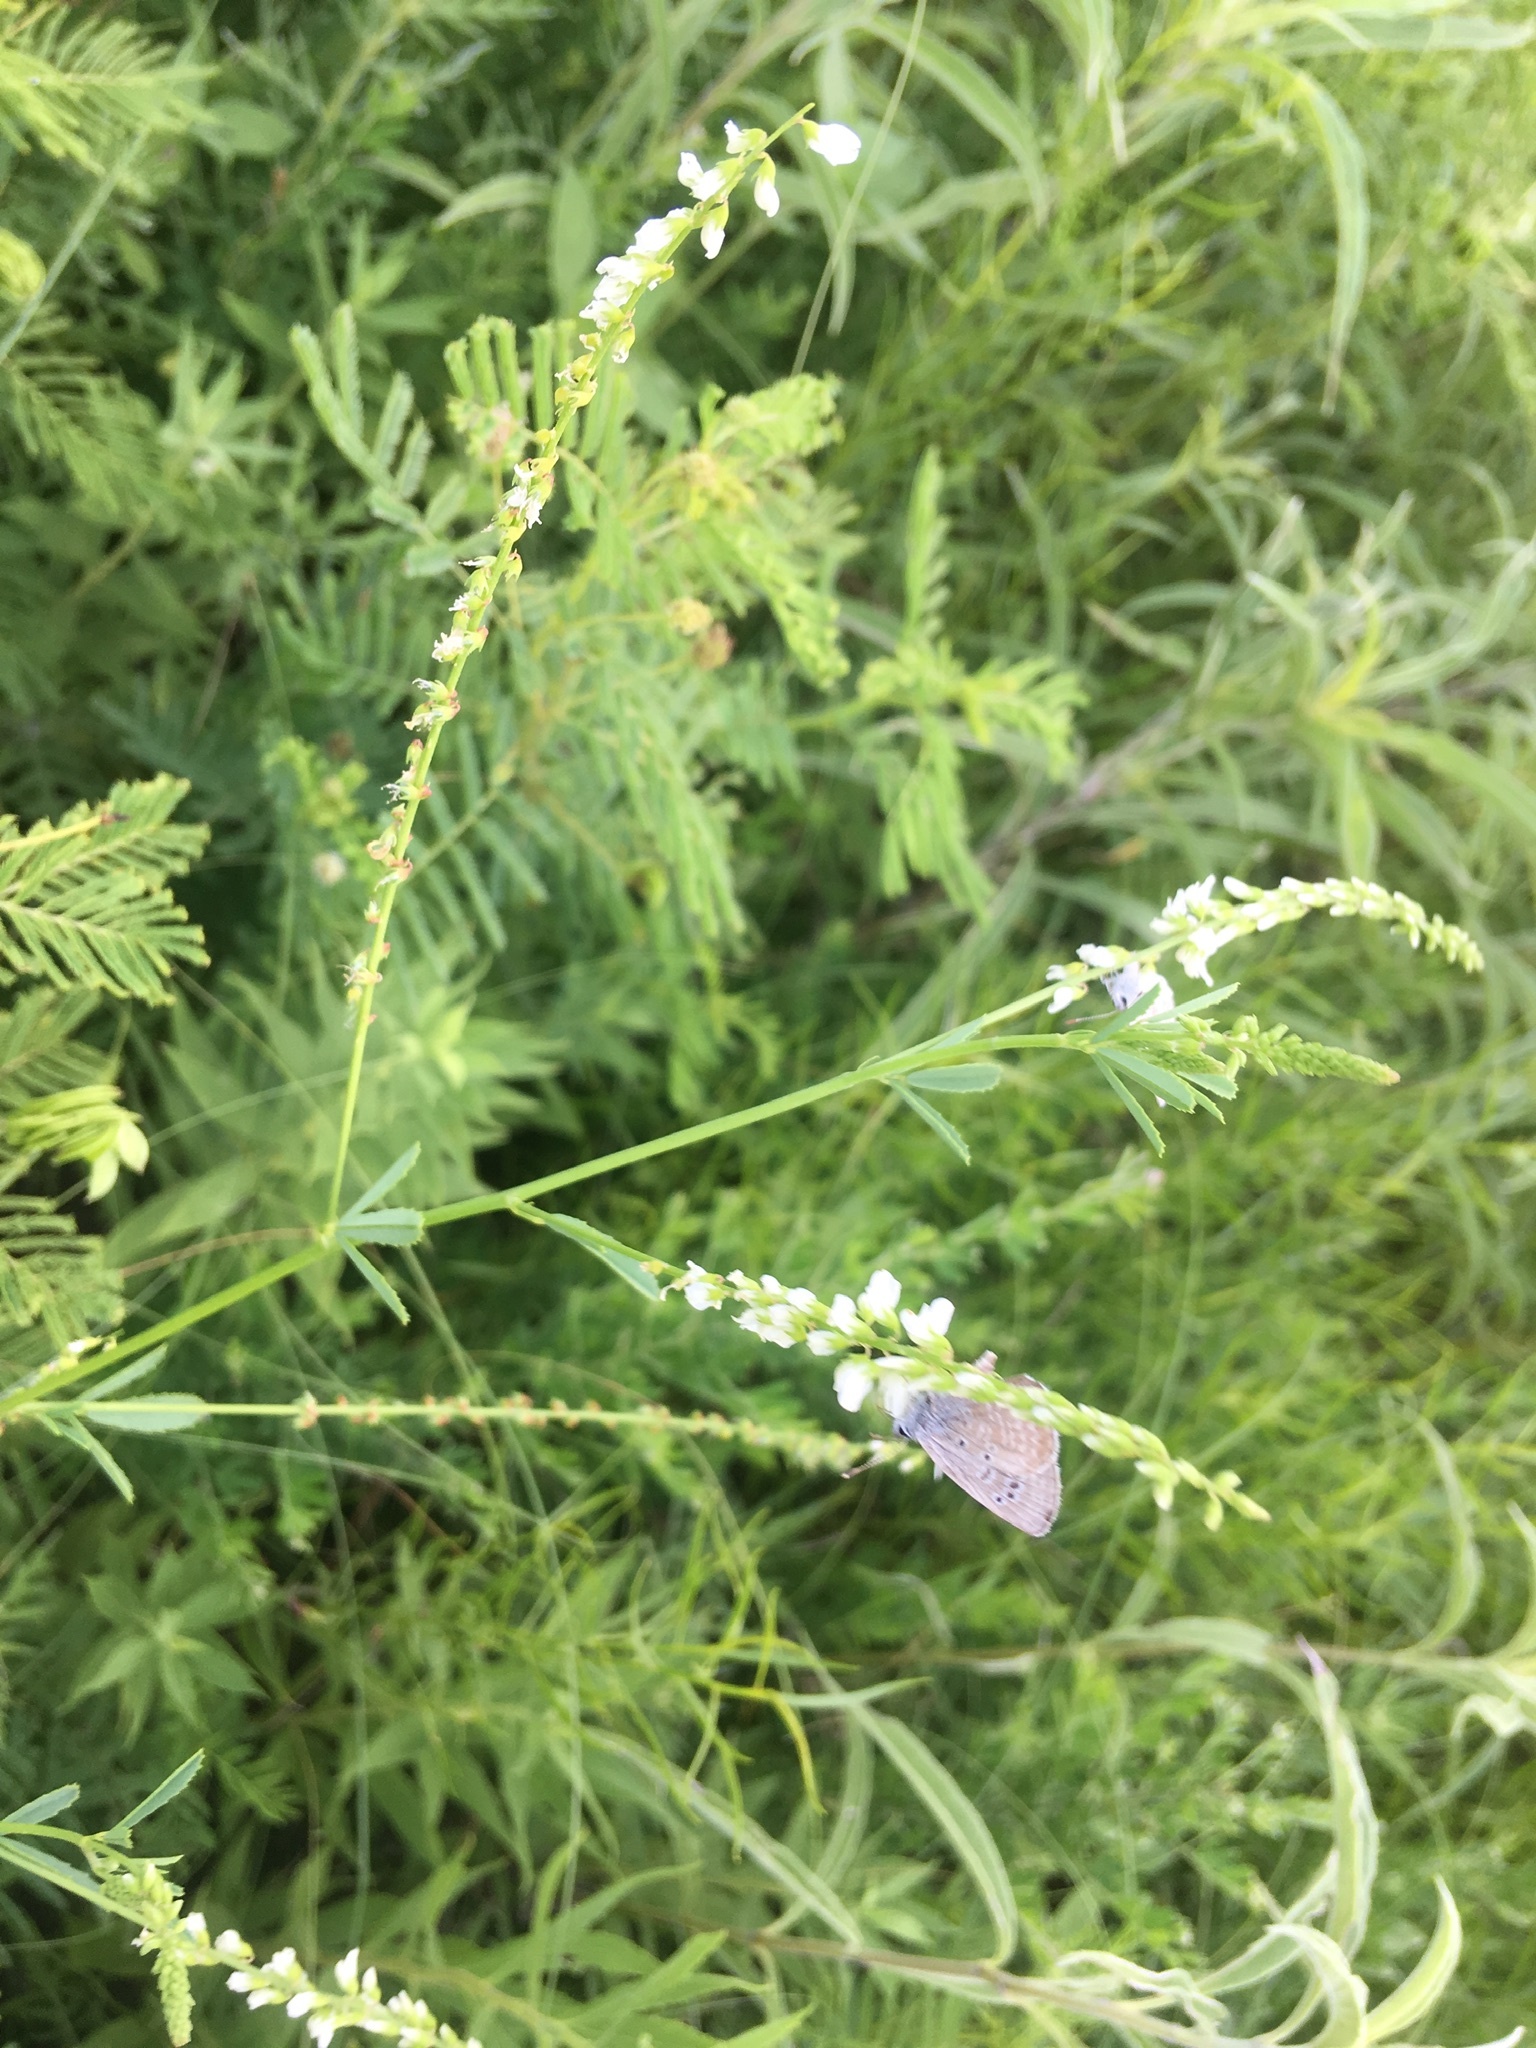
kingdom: Animalia
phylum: Arthropoda
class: Insecta
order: Lepidoptera
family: Lycaenidae
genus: Echinargus
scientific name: Echinargus isola
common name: Reakirt's blue
